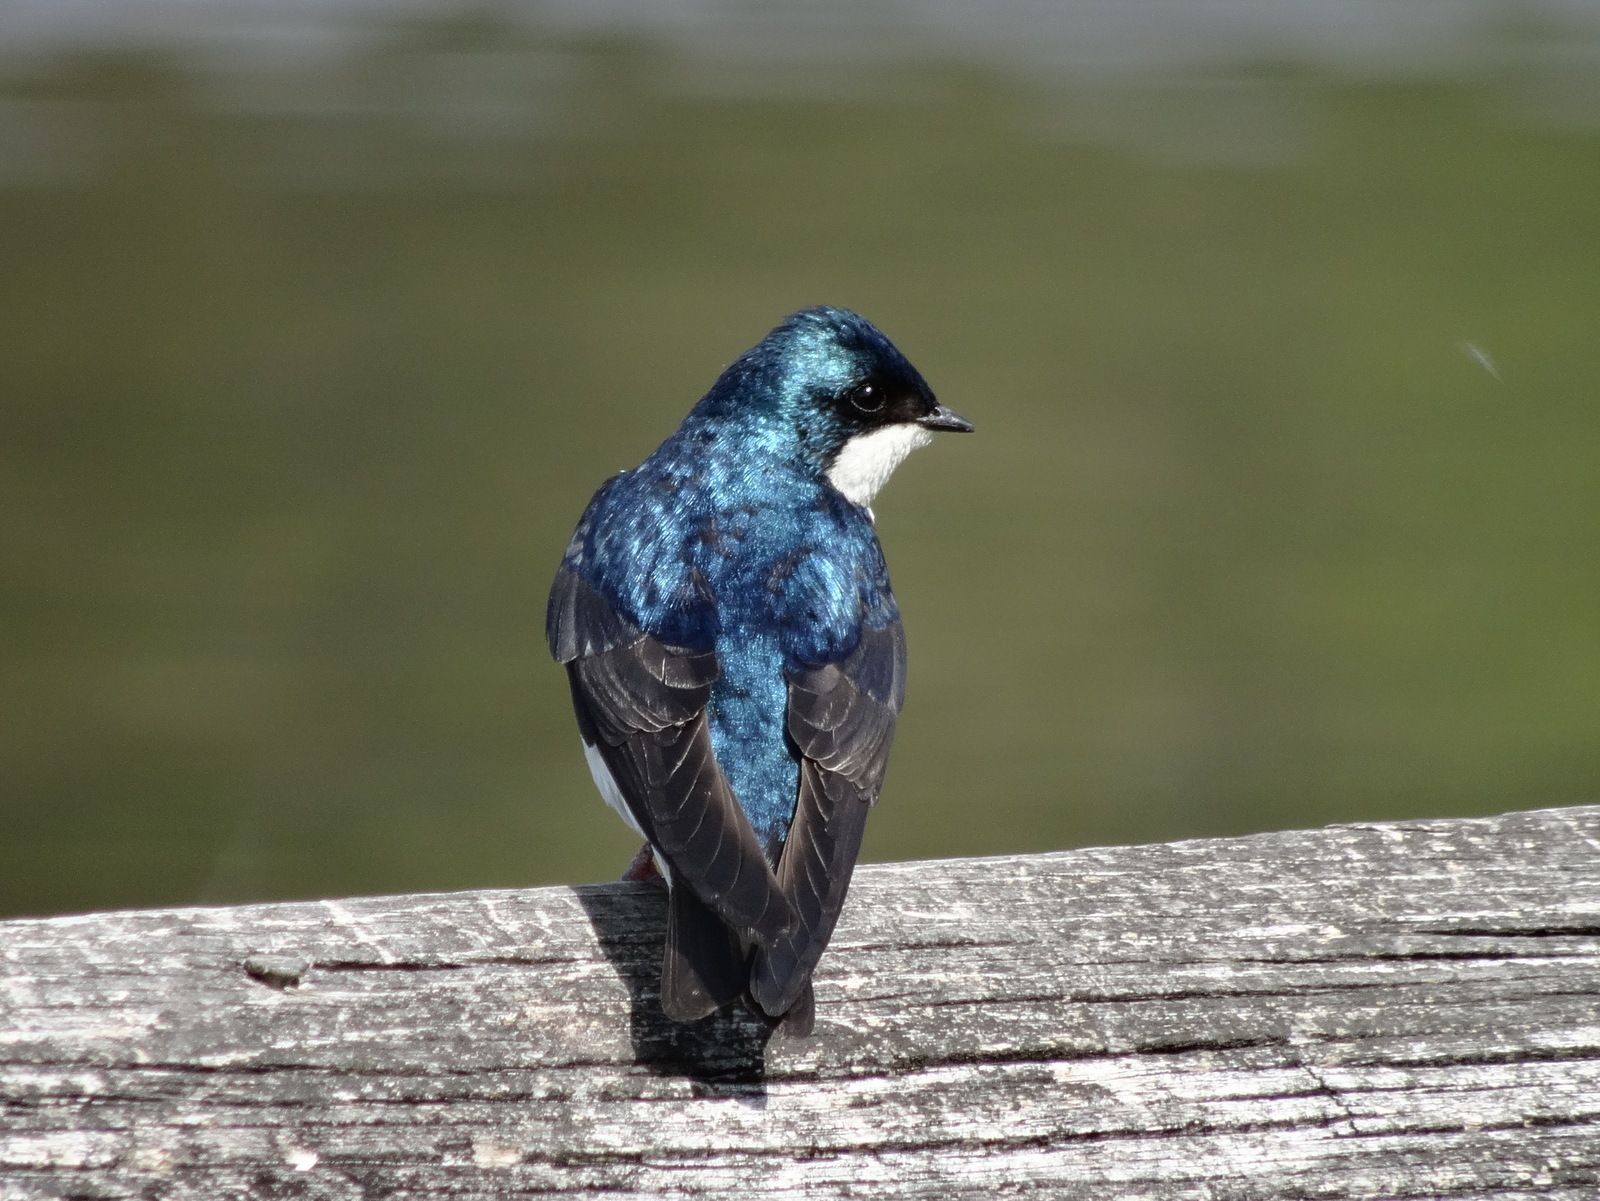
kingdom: Animalia
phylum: Chordata
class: Aves
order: Passeriformes
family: Hirundinidae
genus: Tachycineta
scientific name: Tachycineta bicolor
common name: Tree swallow
